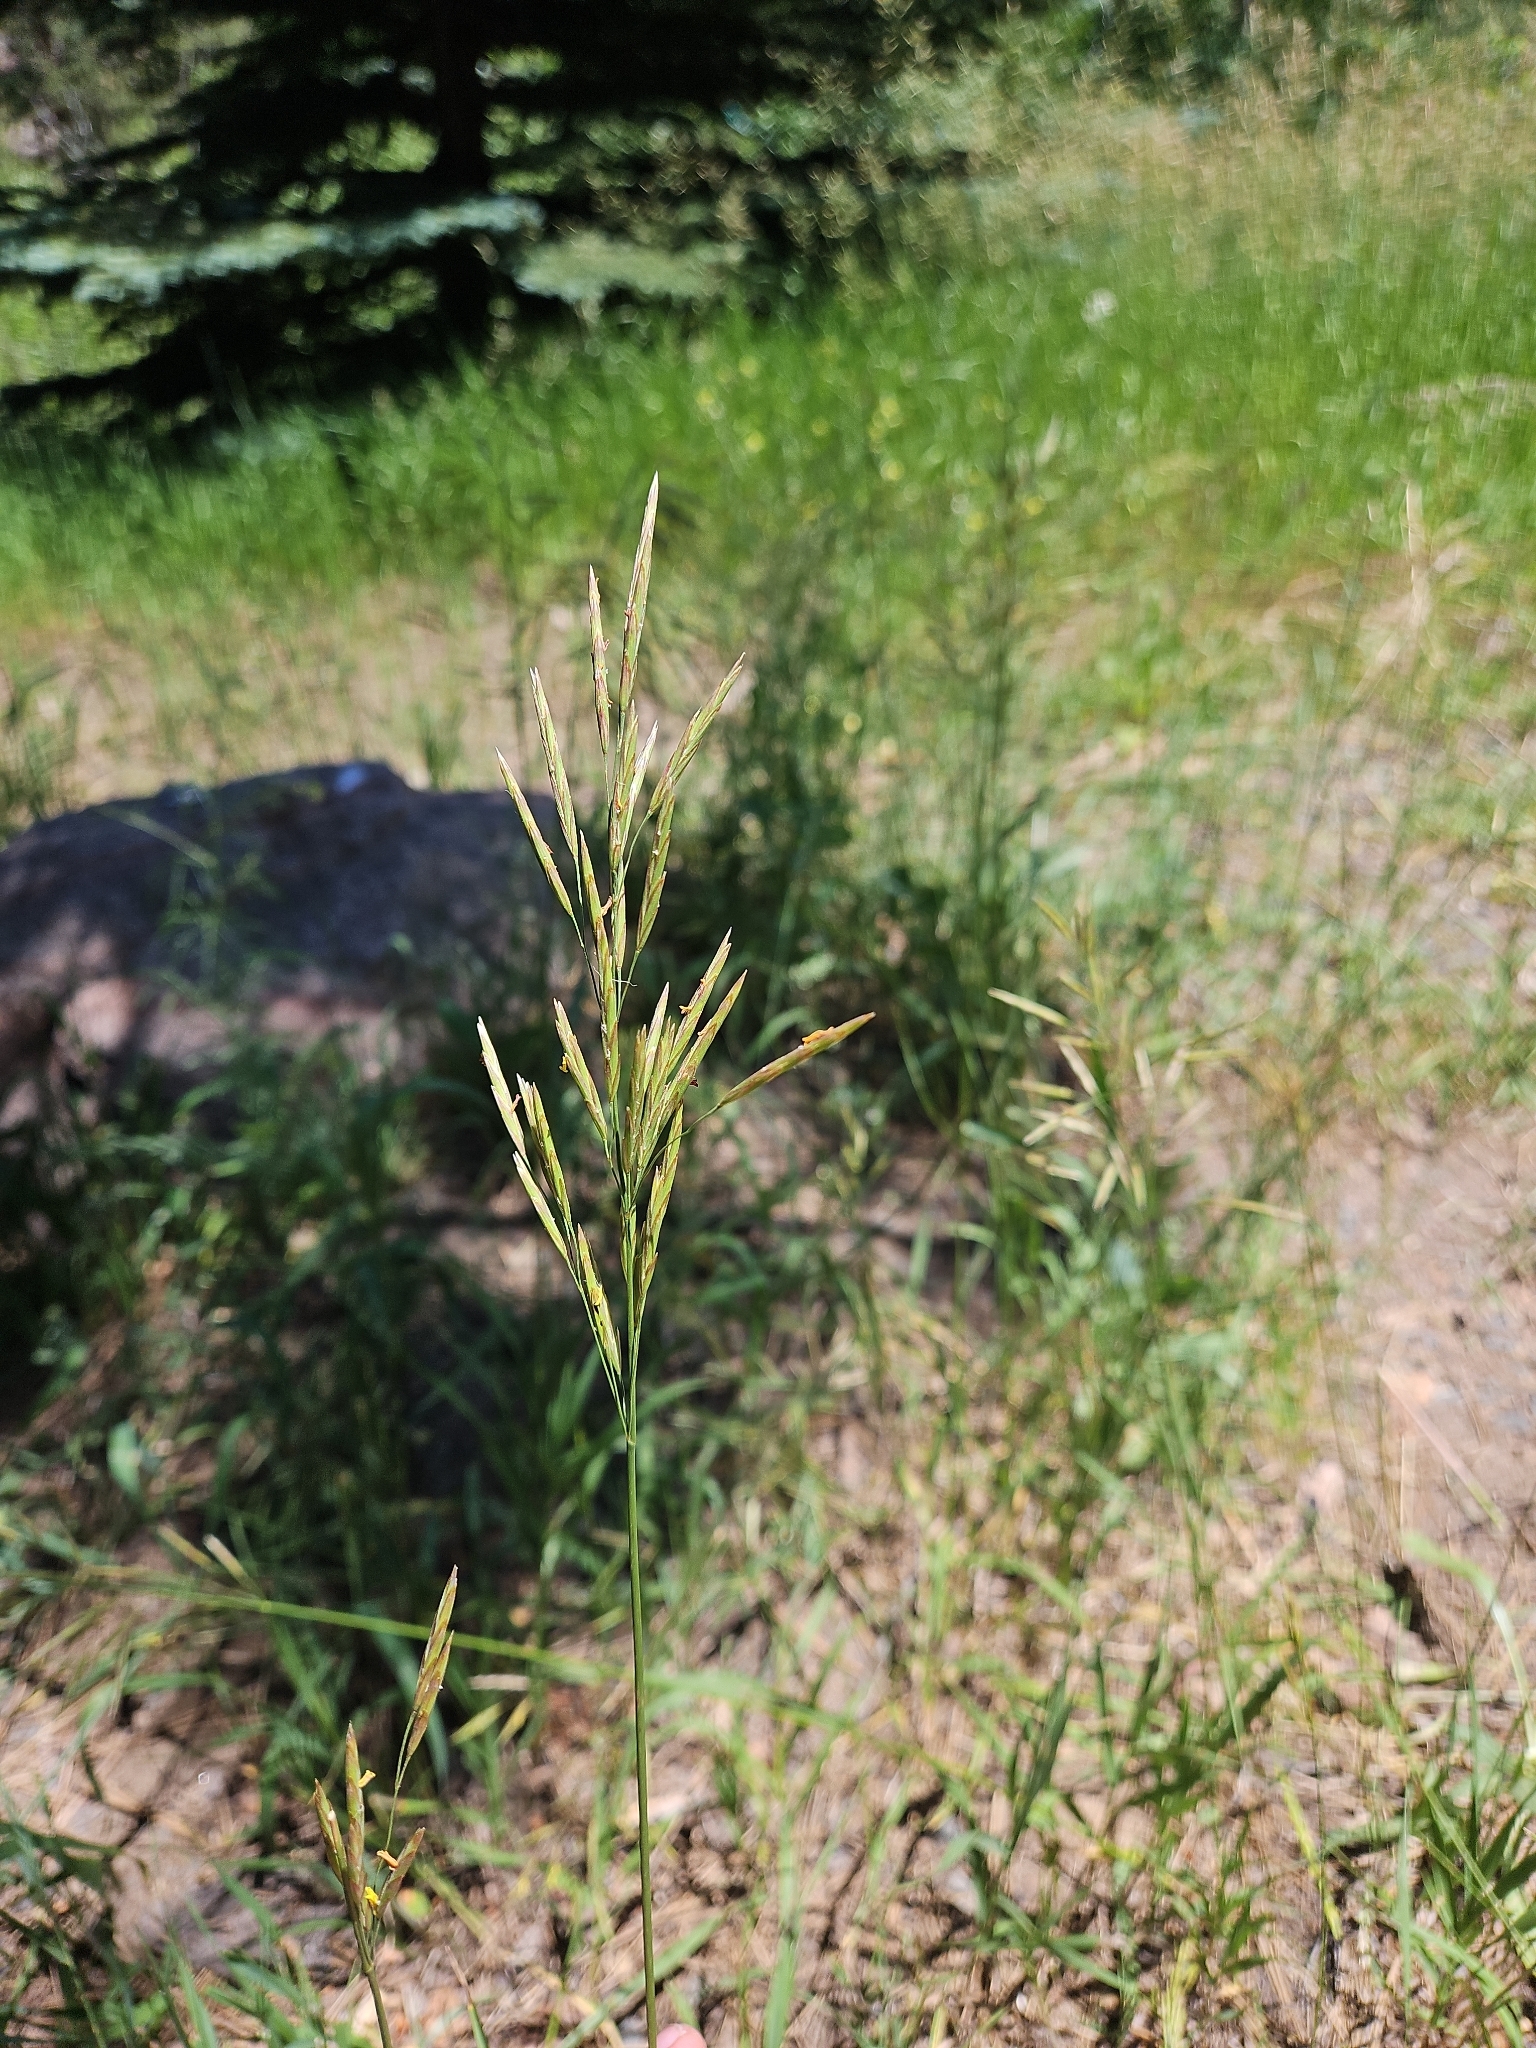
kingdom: Plantae
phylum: Tracheophyta
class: Liliopsida
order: Poales
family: Poaceae
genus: Bromus
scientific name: Bromus inermis
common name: Smooth brome
